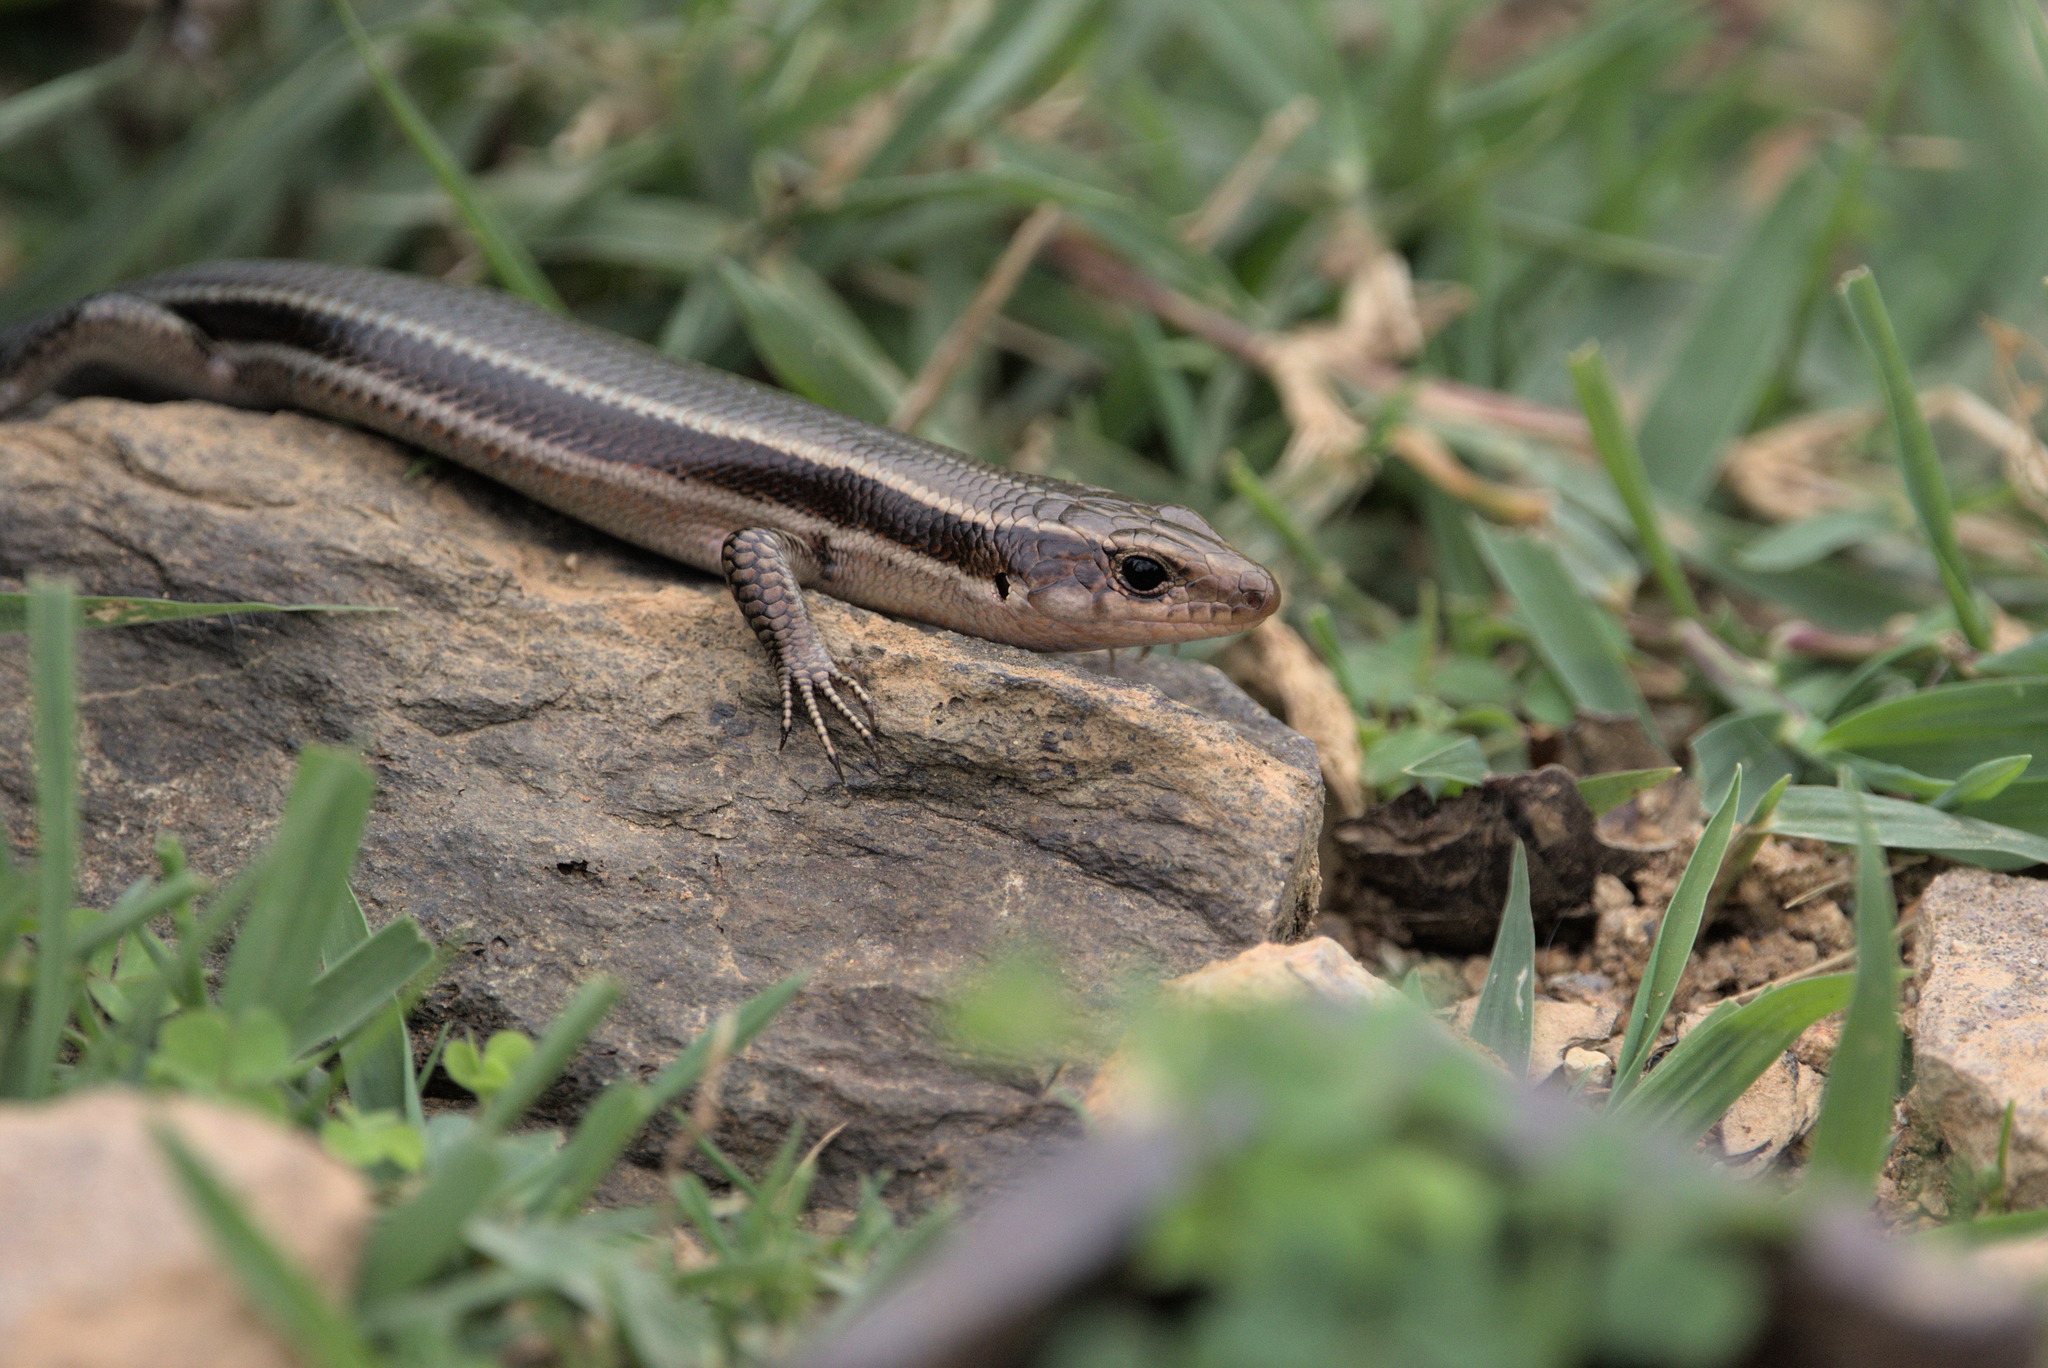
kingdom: Animalia
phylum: Chordata
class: Squamata
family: Scincidae
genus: Plestiodon
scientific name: Plestiodon japonicus
